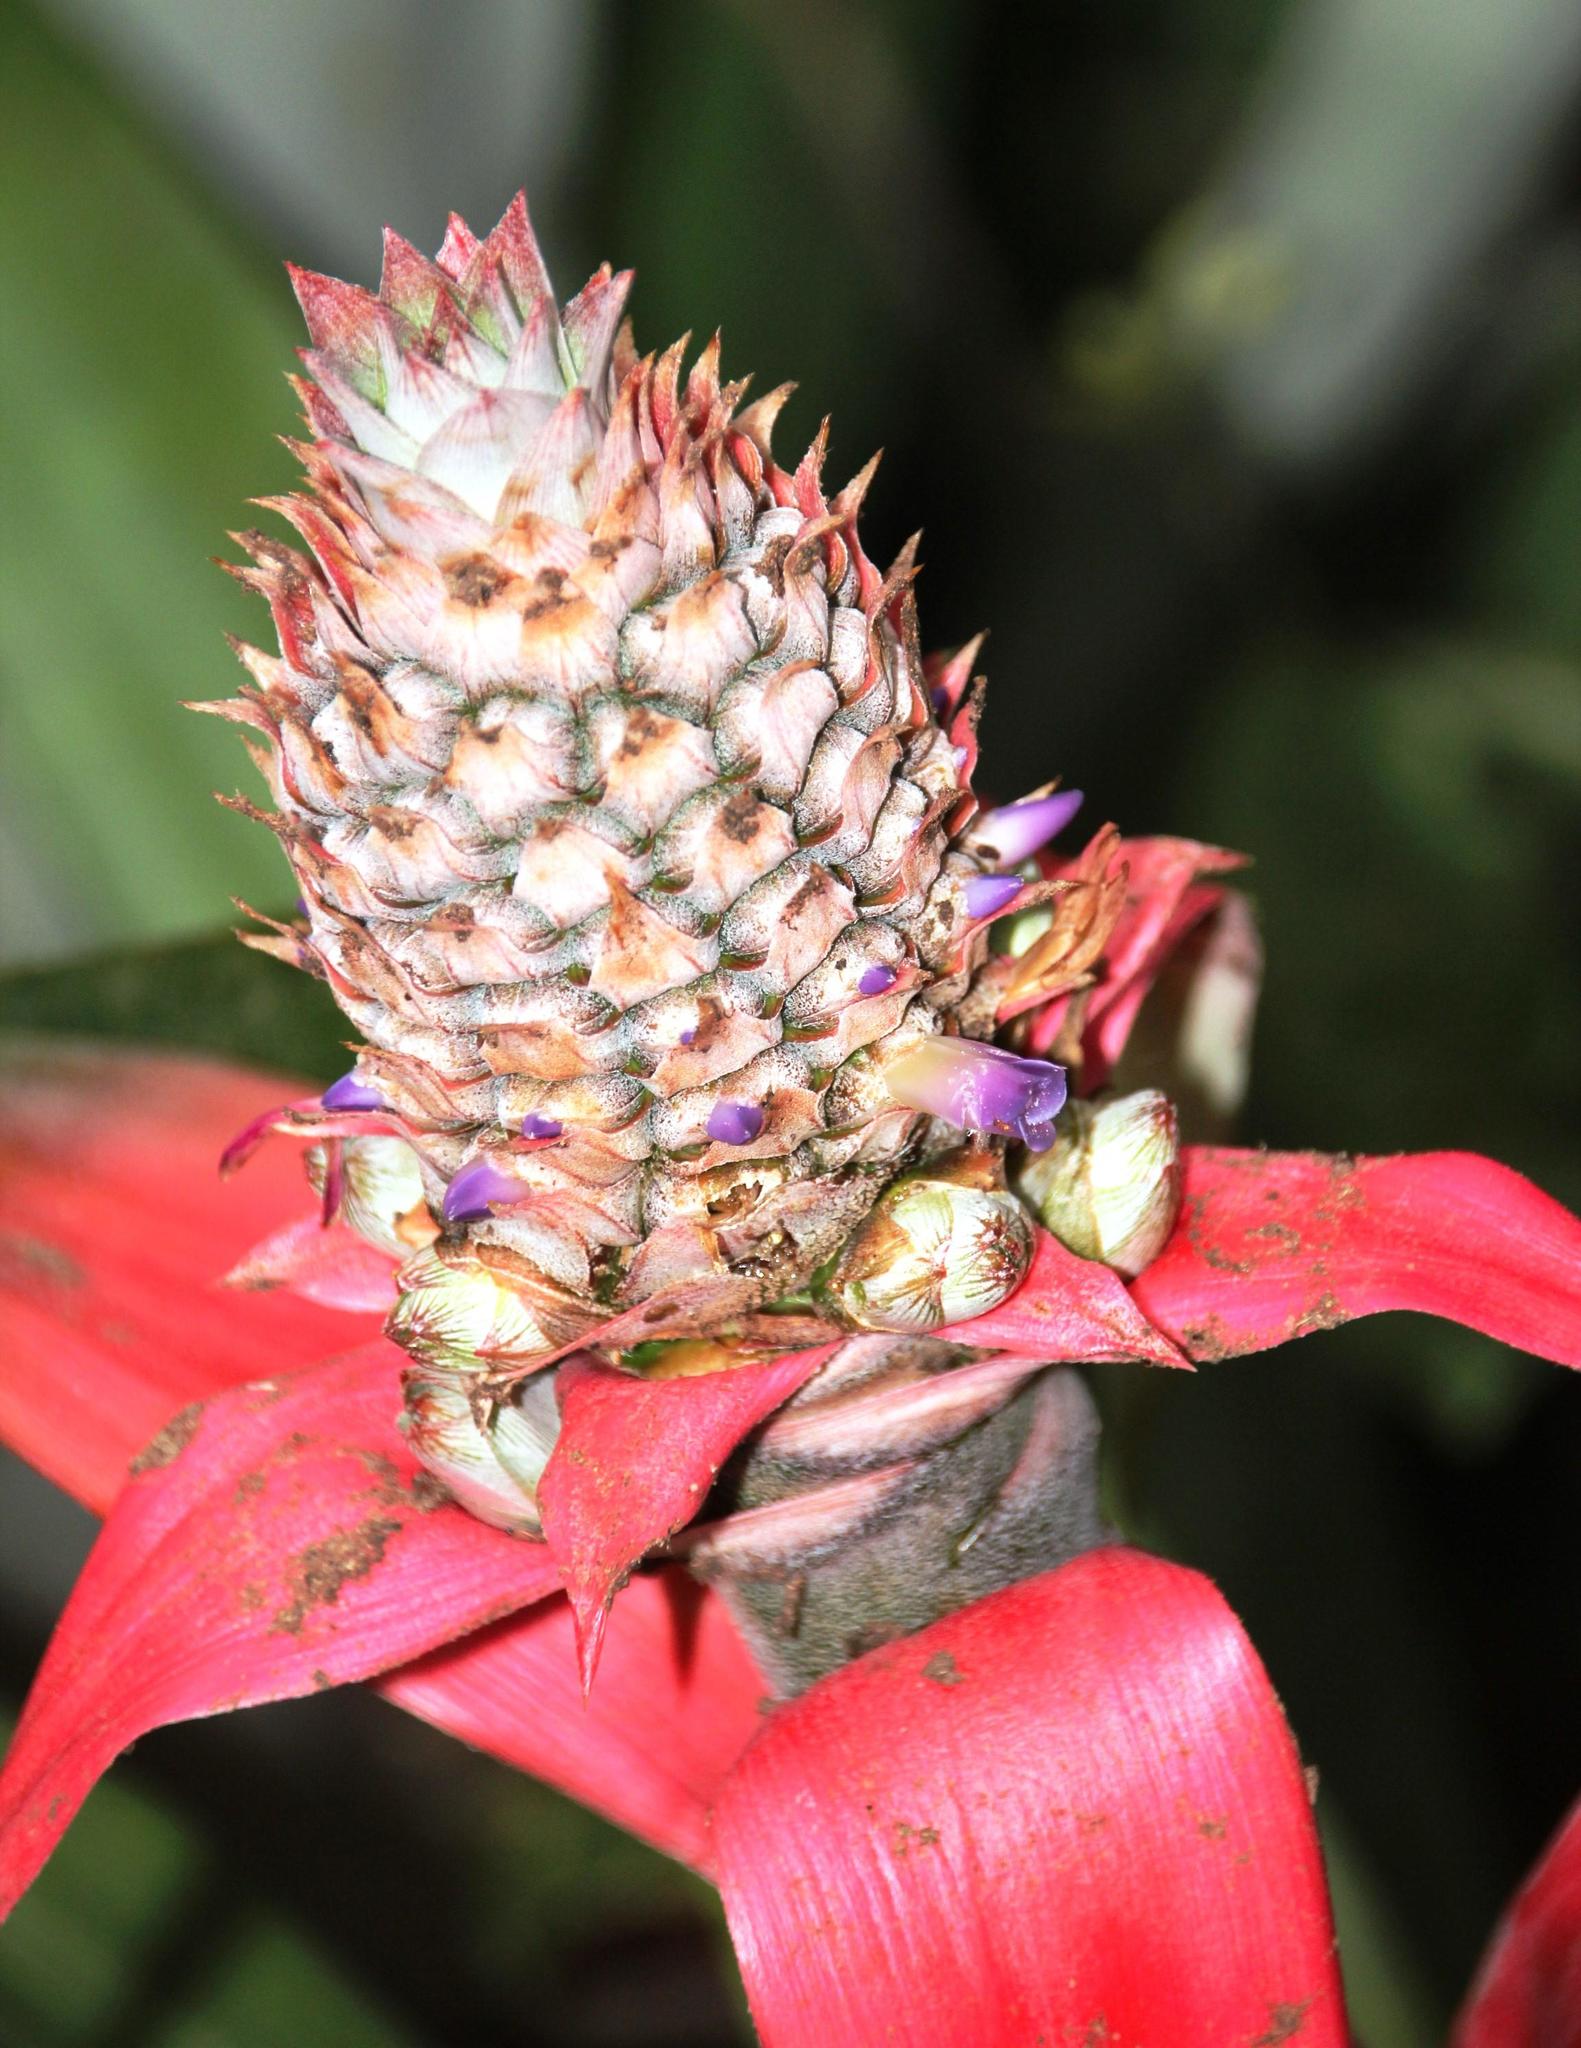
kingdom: Plantae
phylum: Tracheophyta
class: Liliopsida
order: Poales
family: Bromeliaceae
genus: Ananas
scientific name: Ananas comosus
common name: Pineapple
